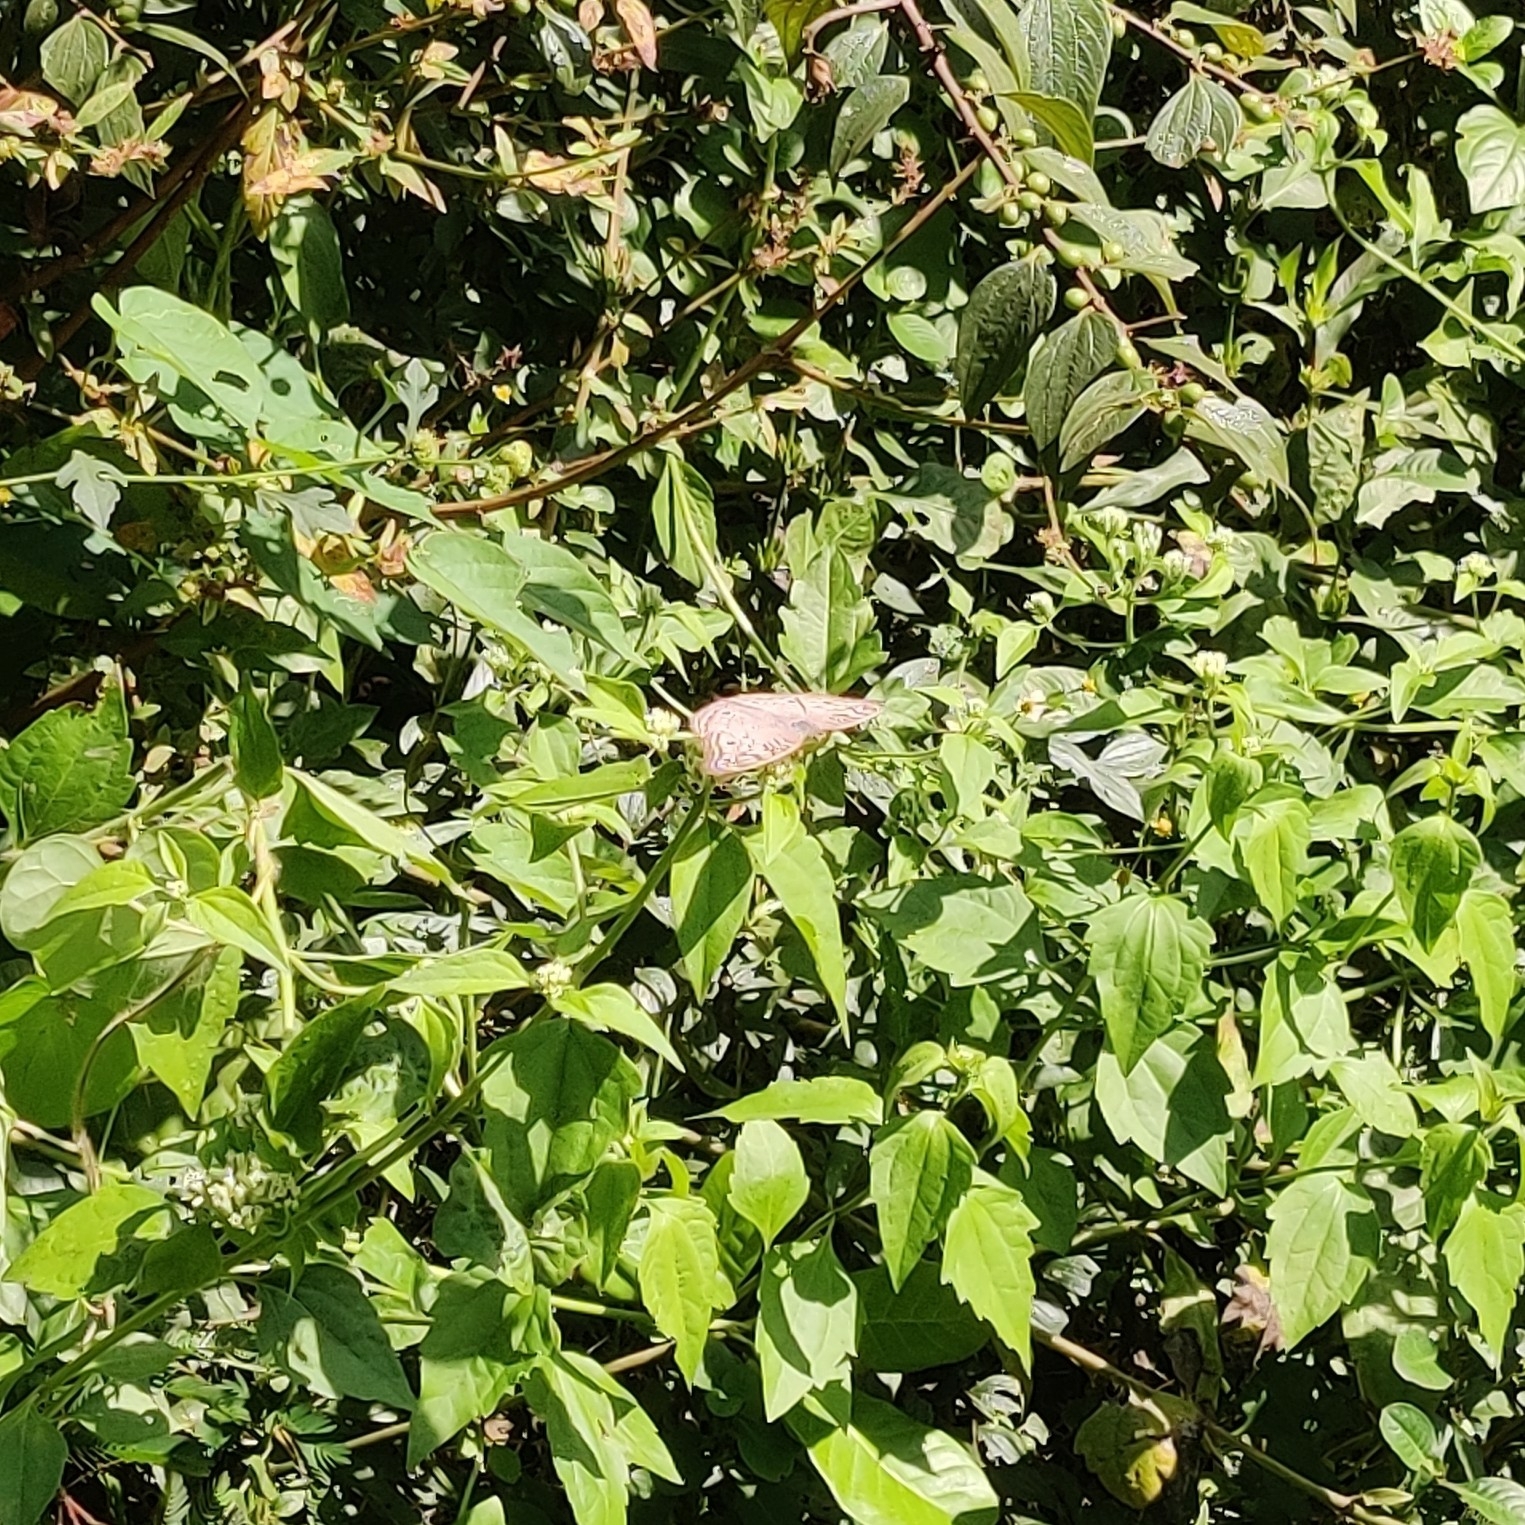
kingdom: Animalia
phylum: Arthropoda
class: Insecta
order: Lepidoptera
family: Nymphalidae
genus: Junonia
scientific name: Junonia atlites
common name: Grey pansy
